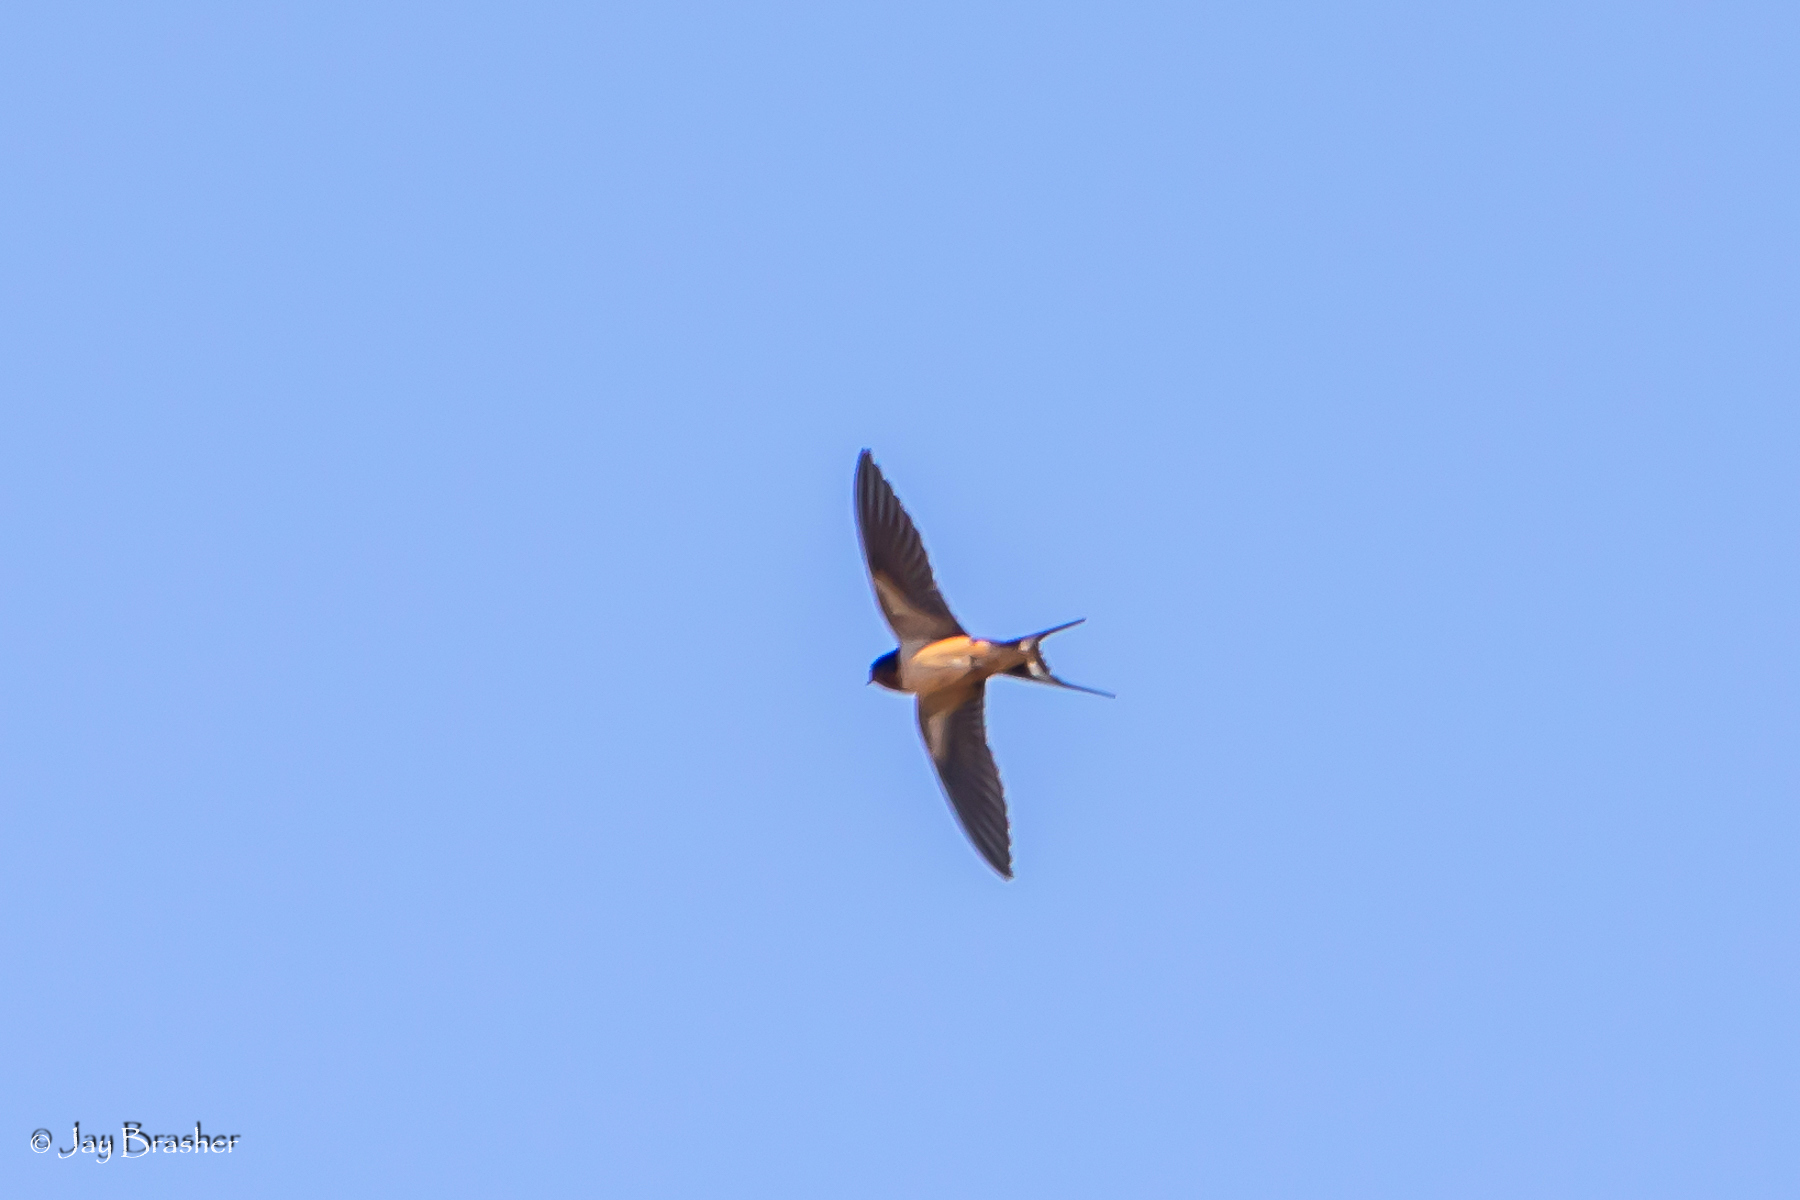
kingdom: Animalia
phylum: Chordata
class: Aves
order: Passeriformes
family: Hirundinidae
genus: Hirundo
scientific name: Hirundo rustica
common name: Barn swallow
